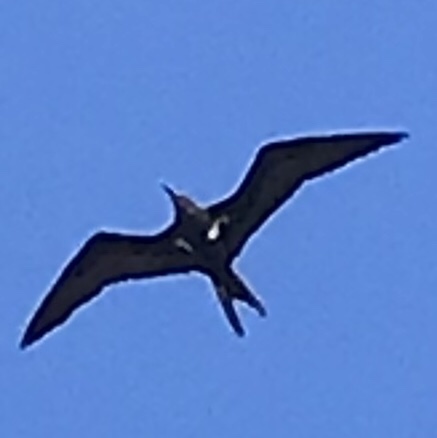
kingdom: Animalia
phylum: Chordata
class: Aves
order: Suliformes
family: Fregatidae
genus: Fregata
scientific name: Fregata ariel
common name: Lesser frigatebird
